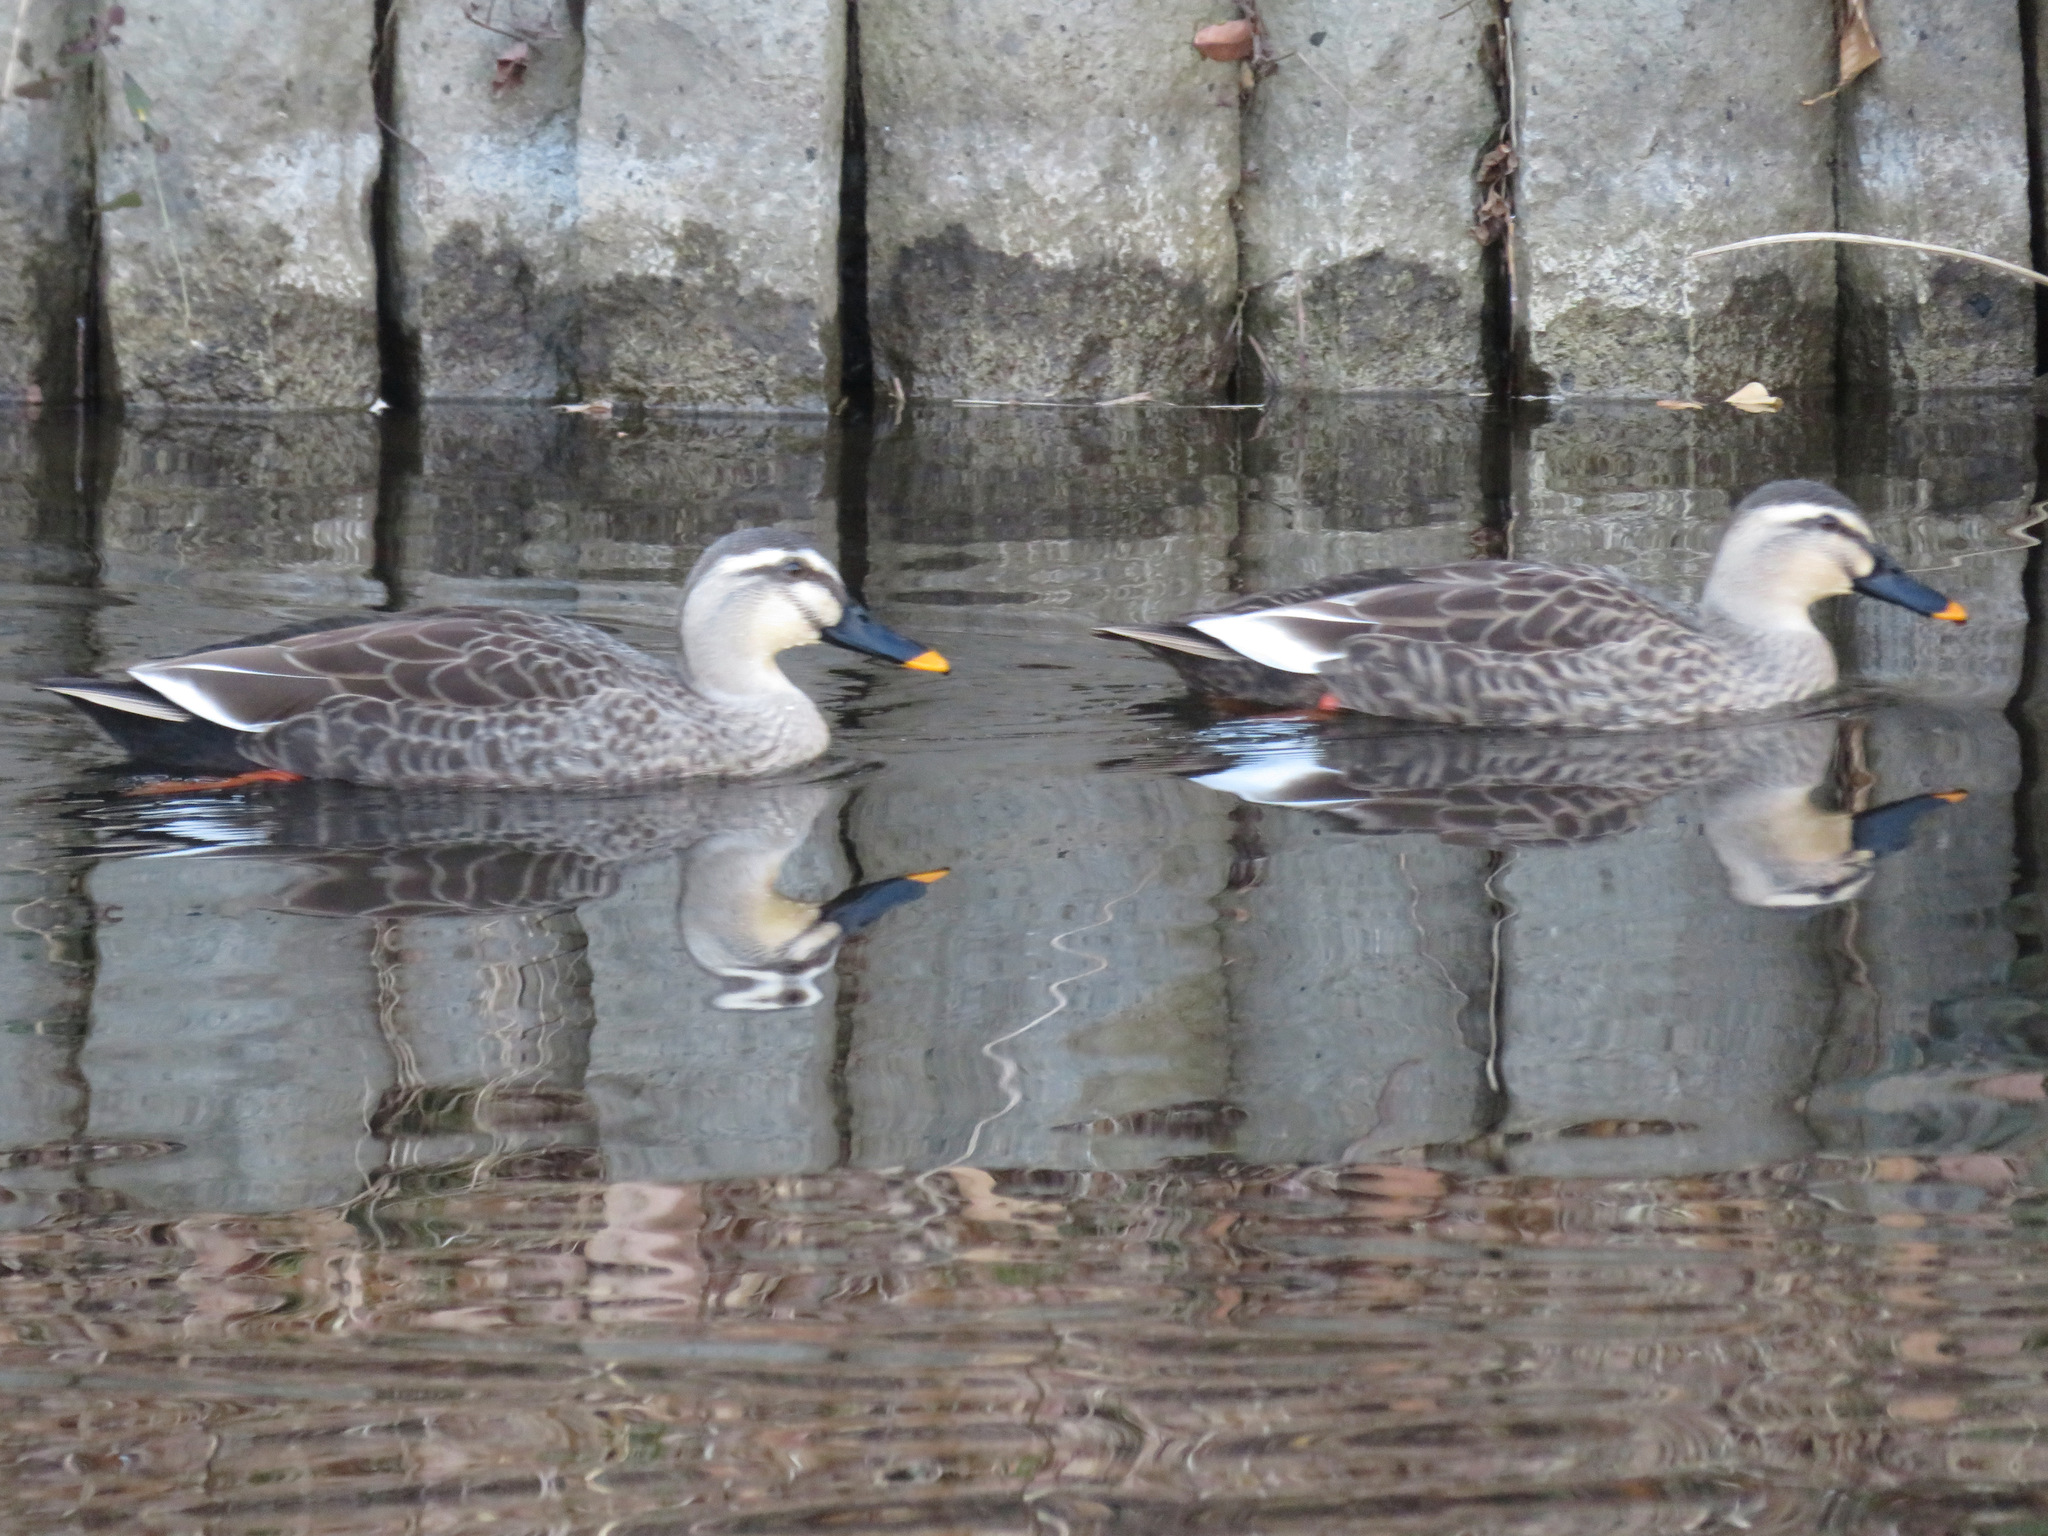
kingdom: Animalia
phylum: Chordata
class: Aves
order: Anseriformes
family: Anatidae
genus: Anas
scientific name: Anas zonorhyncha
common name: Eastern spot-billed duck
